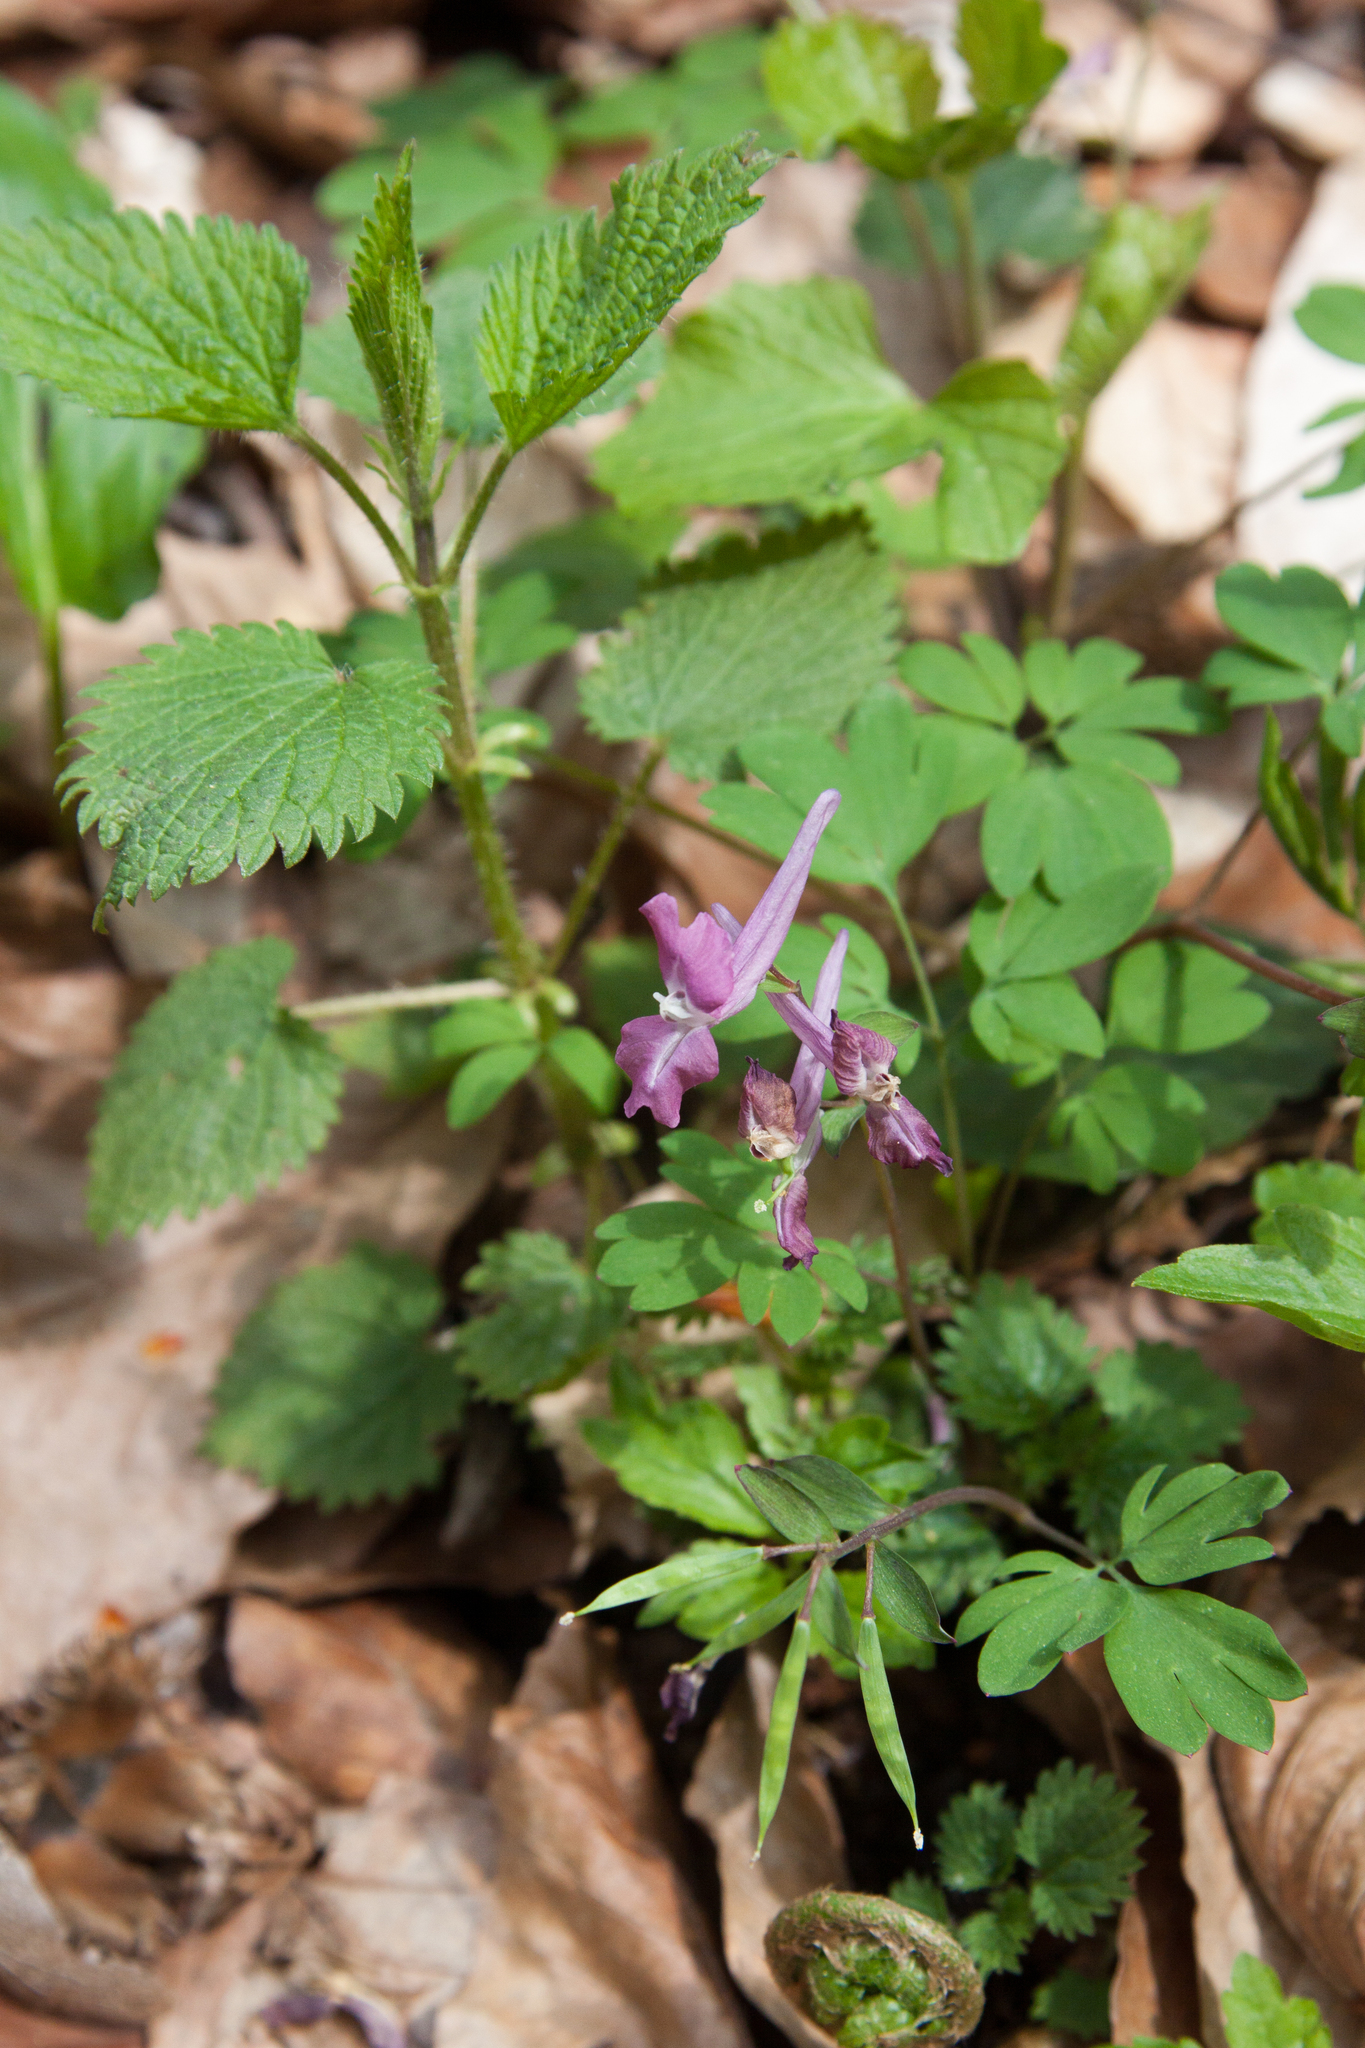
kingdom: Plantae
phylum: Tracheophyta
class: Magnoliopsida
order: Ranunculales
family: Papaveraceae
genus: Corydalis
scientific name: Corydalis caucasica
